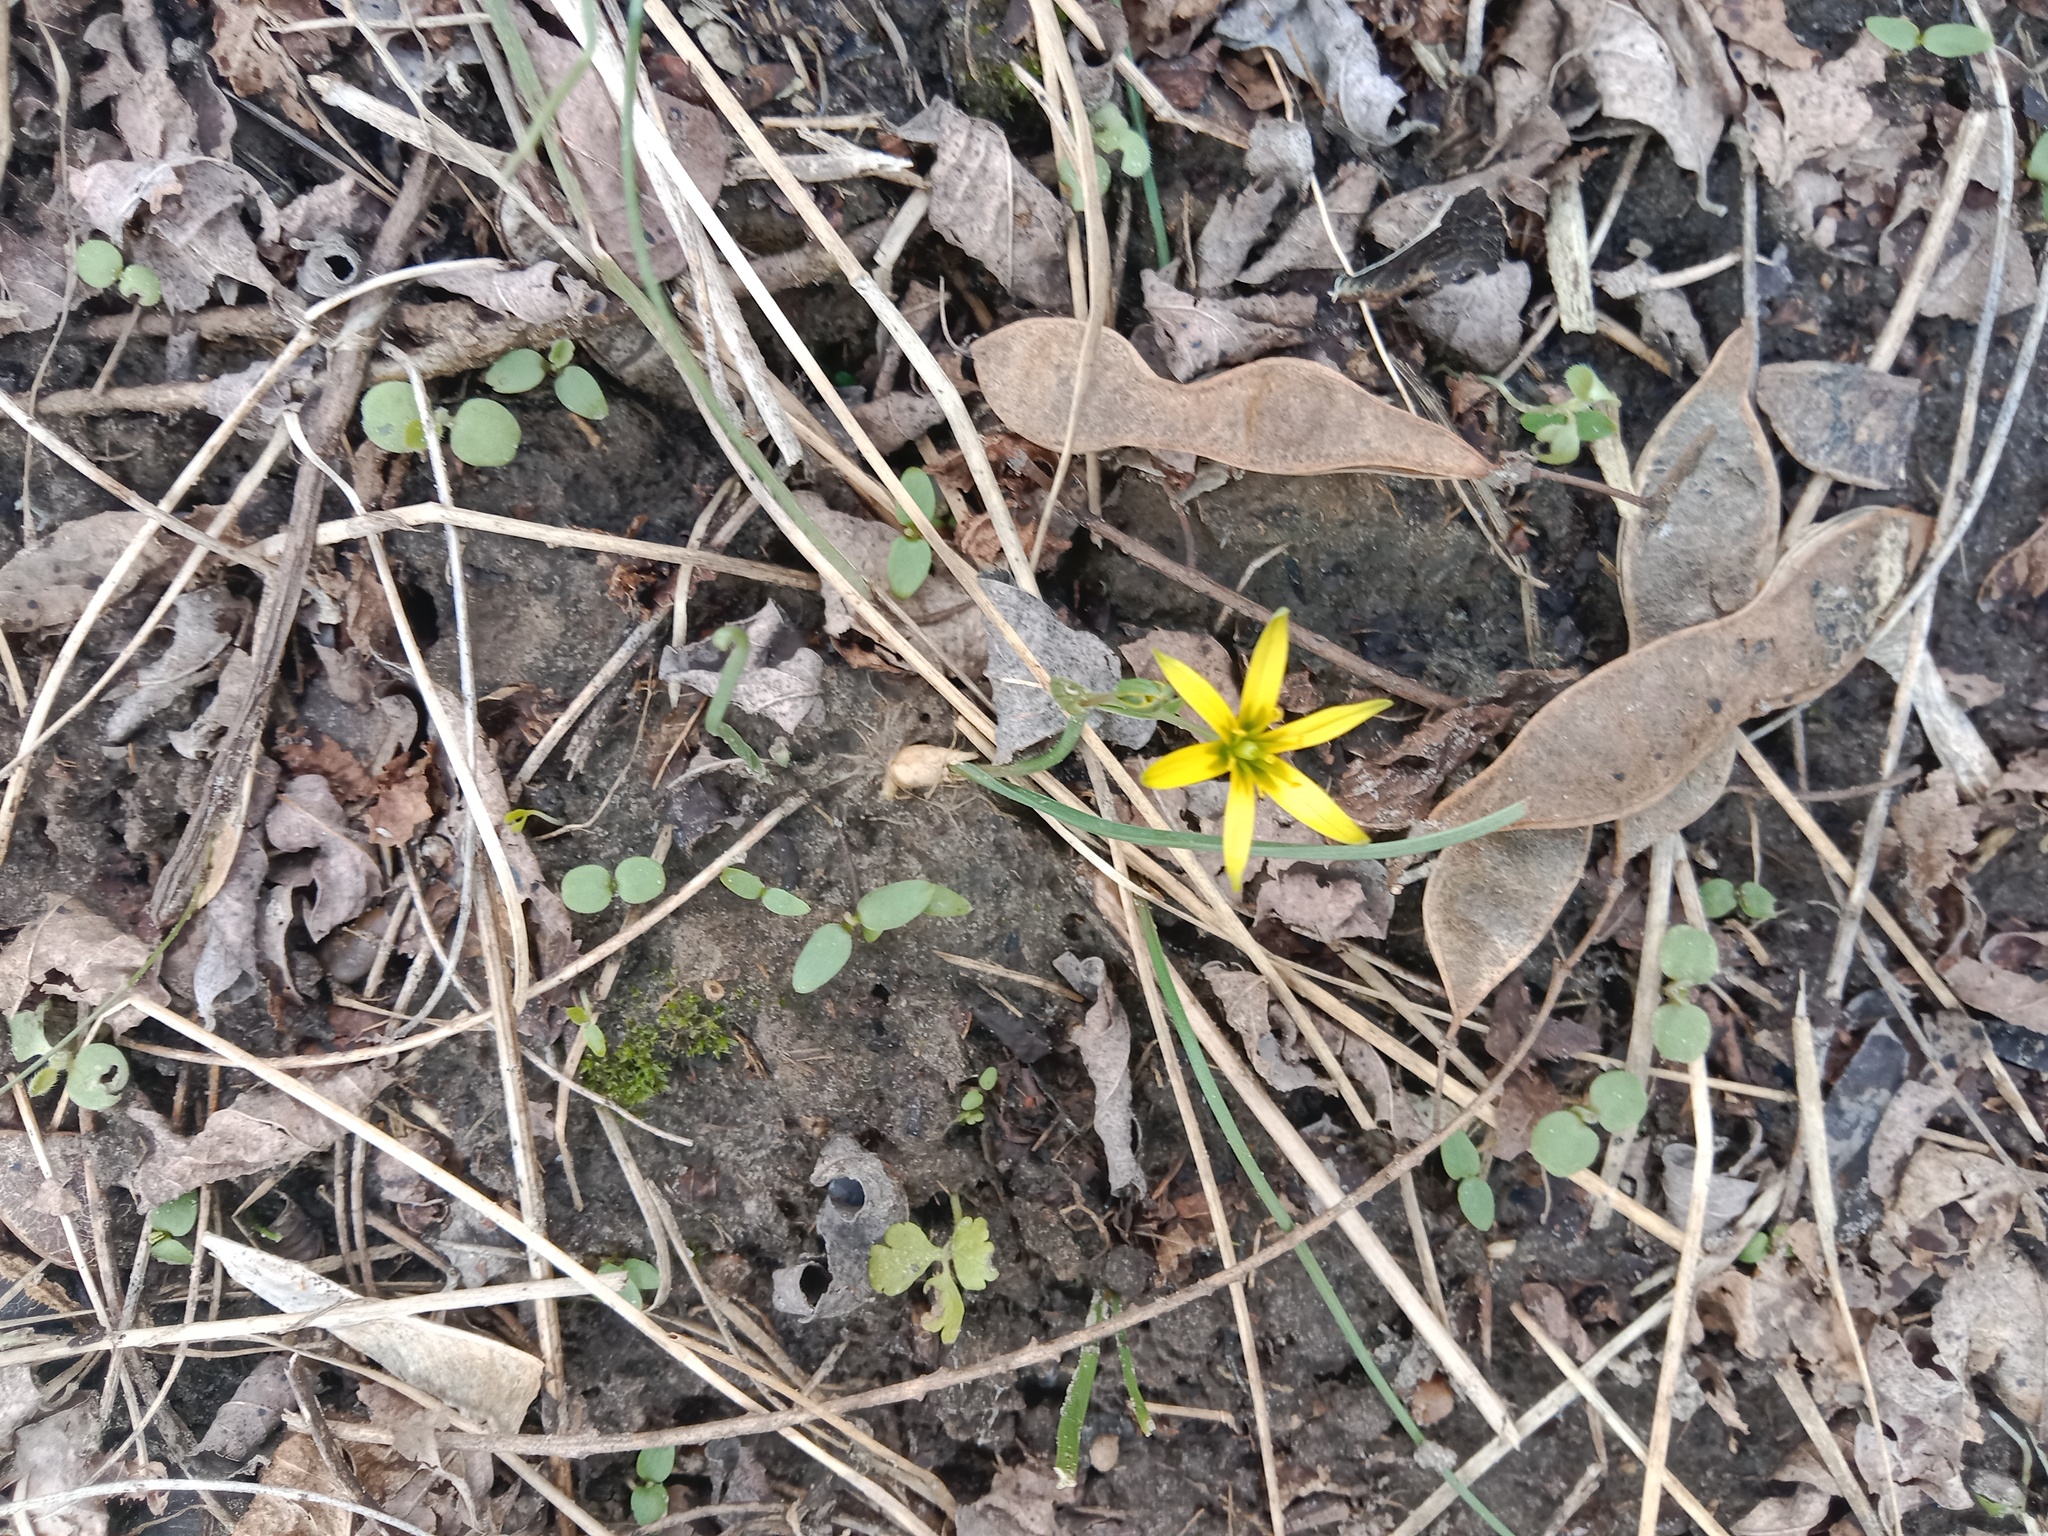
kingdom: Plantae
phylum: Tracheophyta
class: Liliopsida
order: Liliales
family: Liliaceae
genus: Gagea
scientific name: Gagea pusilla
